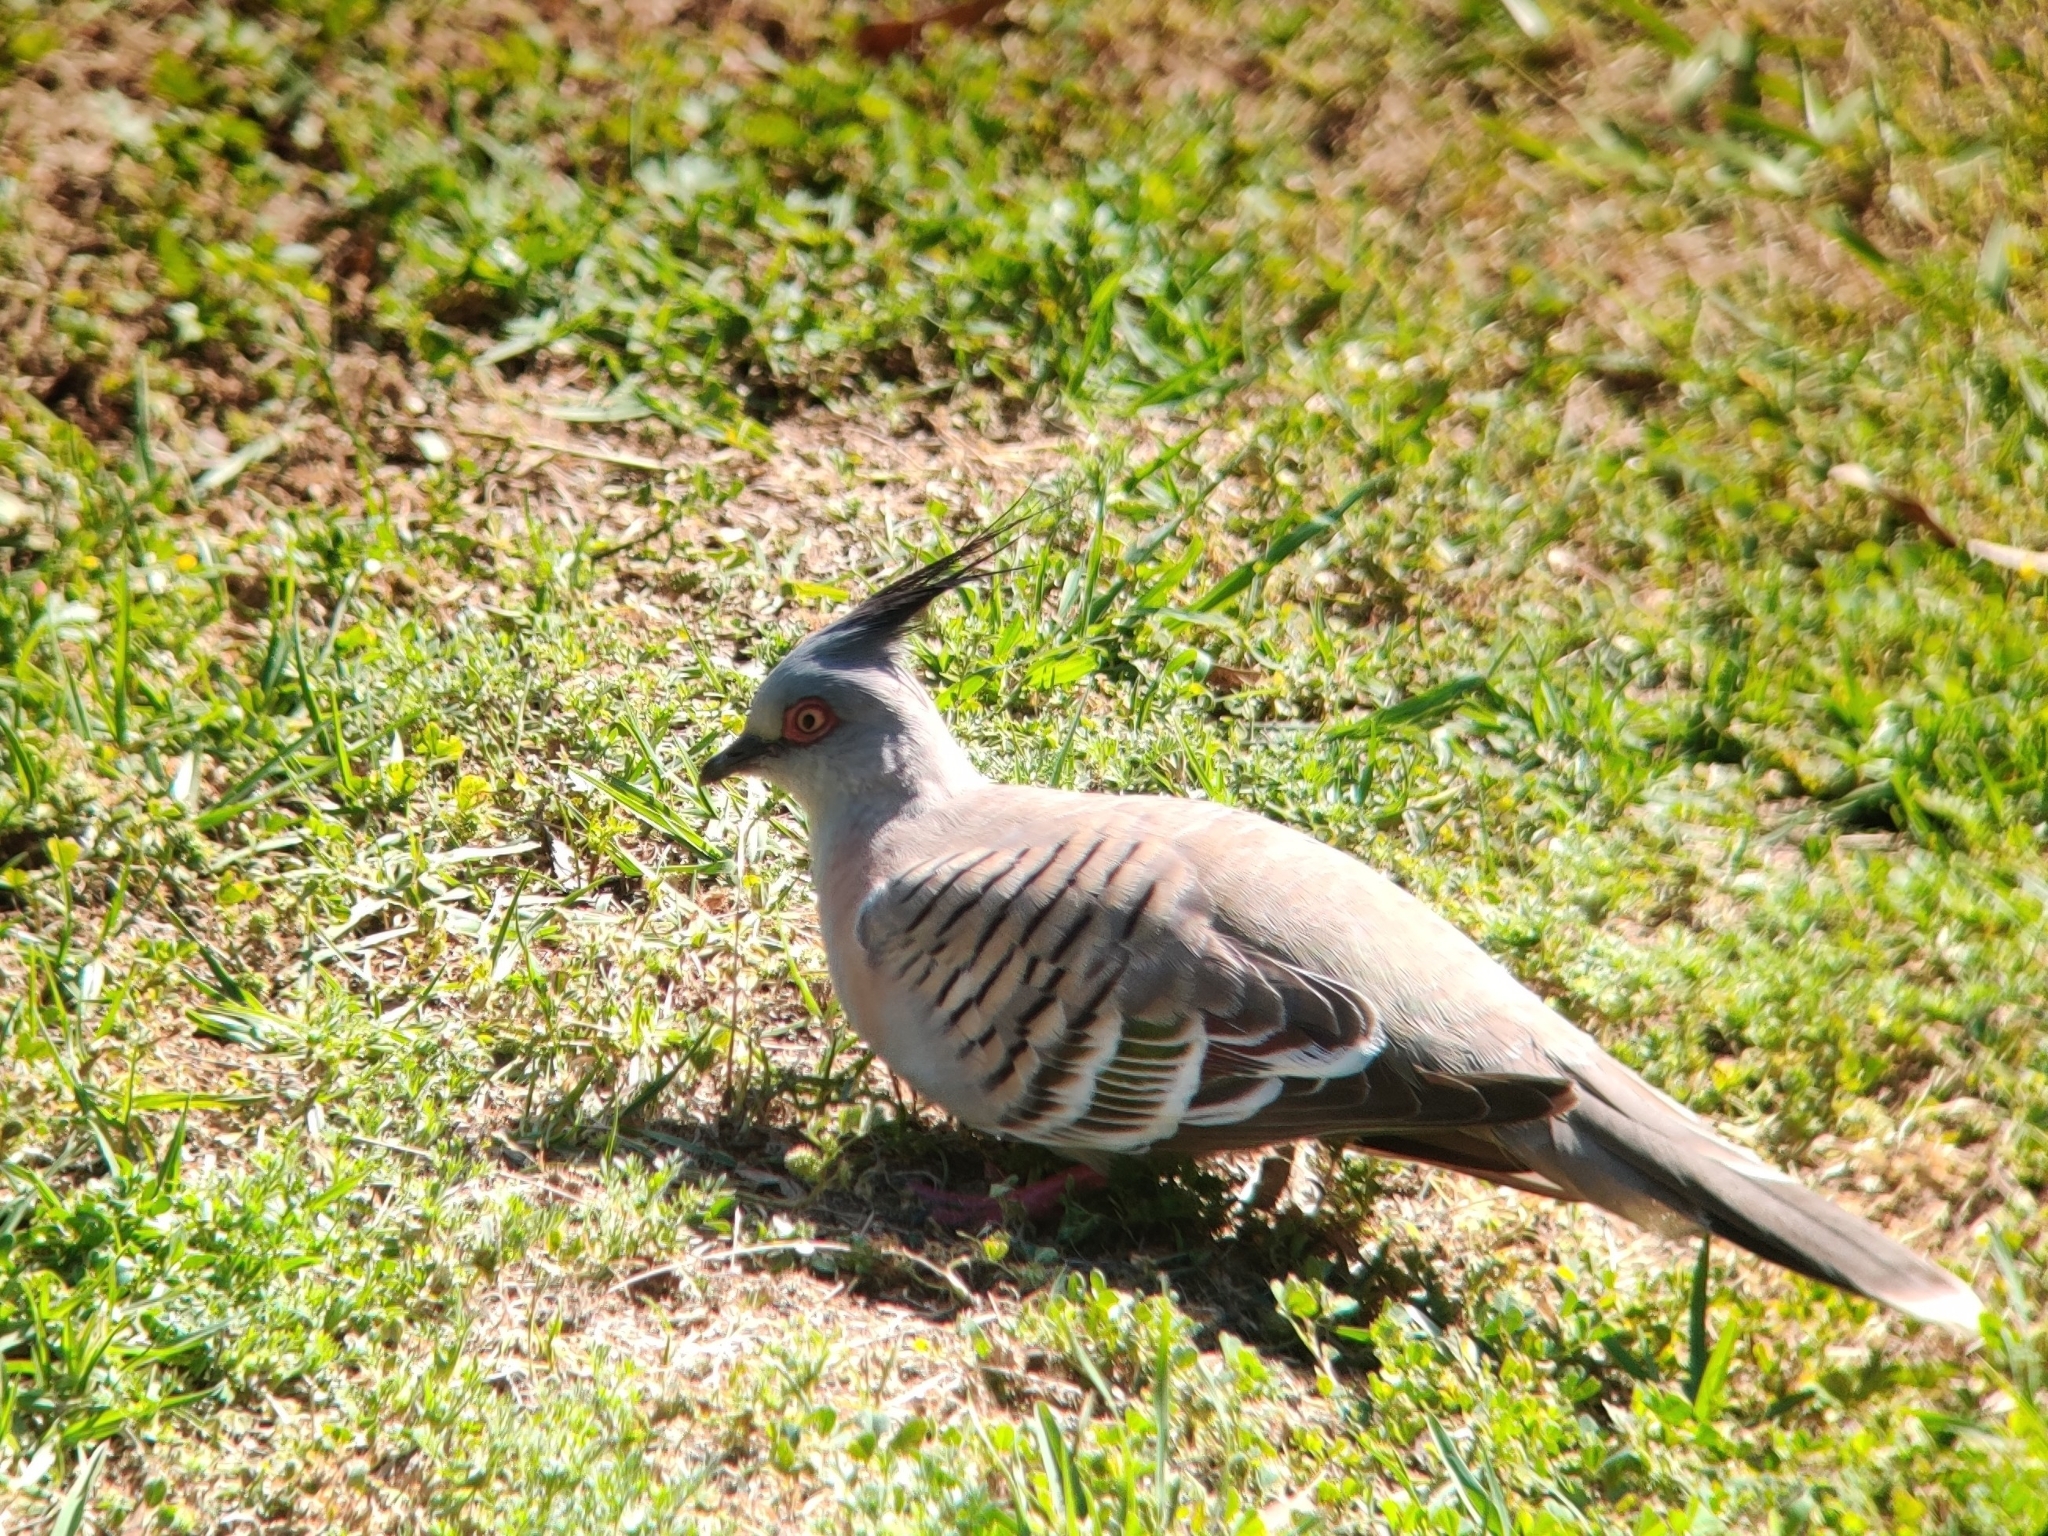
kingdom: Animalia
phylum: Chordata
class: Aves
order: Columbiformes
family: Columbidae
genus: Ocyphaps
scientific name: Ocyphaps lophotes
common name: Crested pigeon
